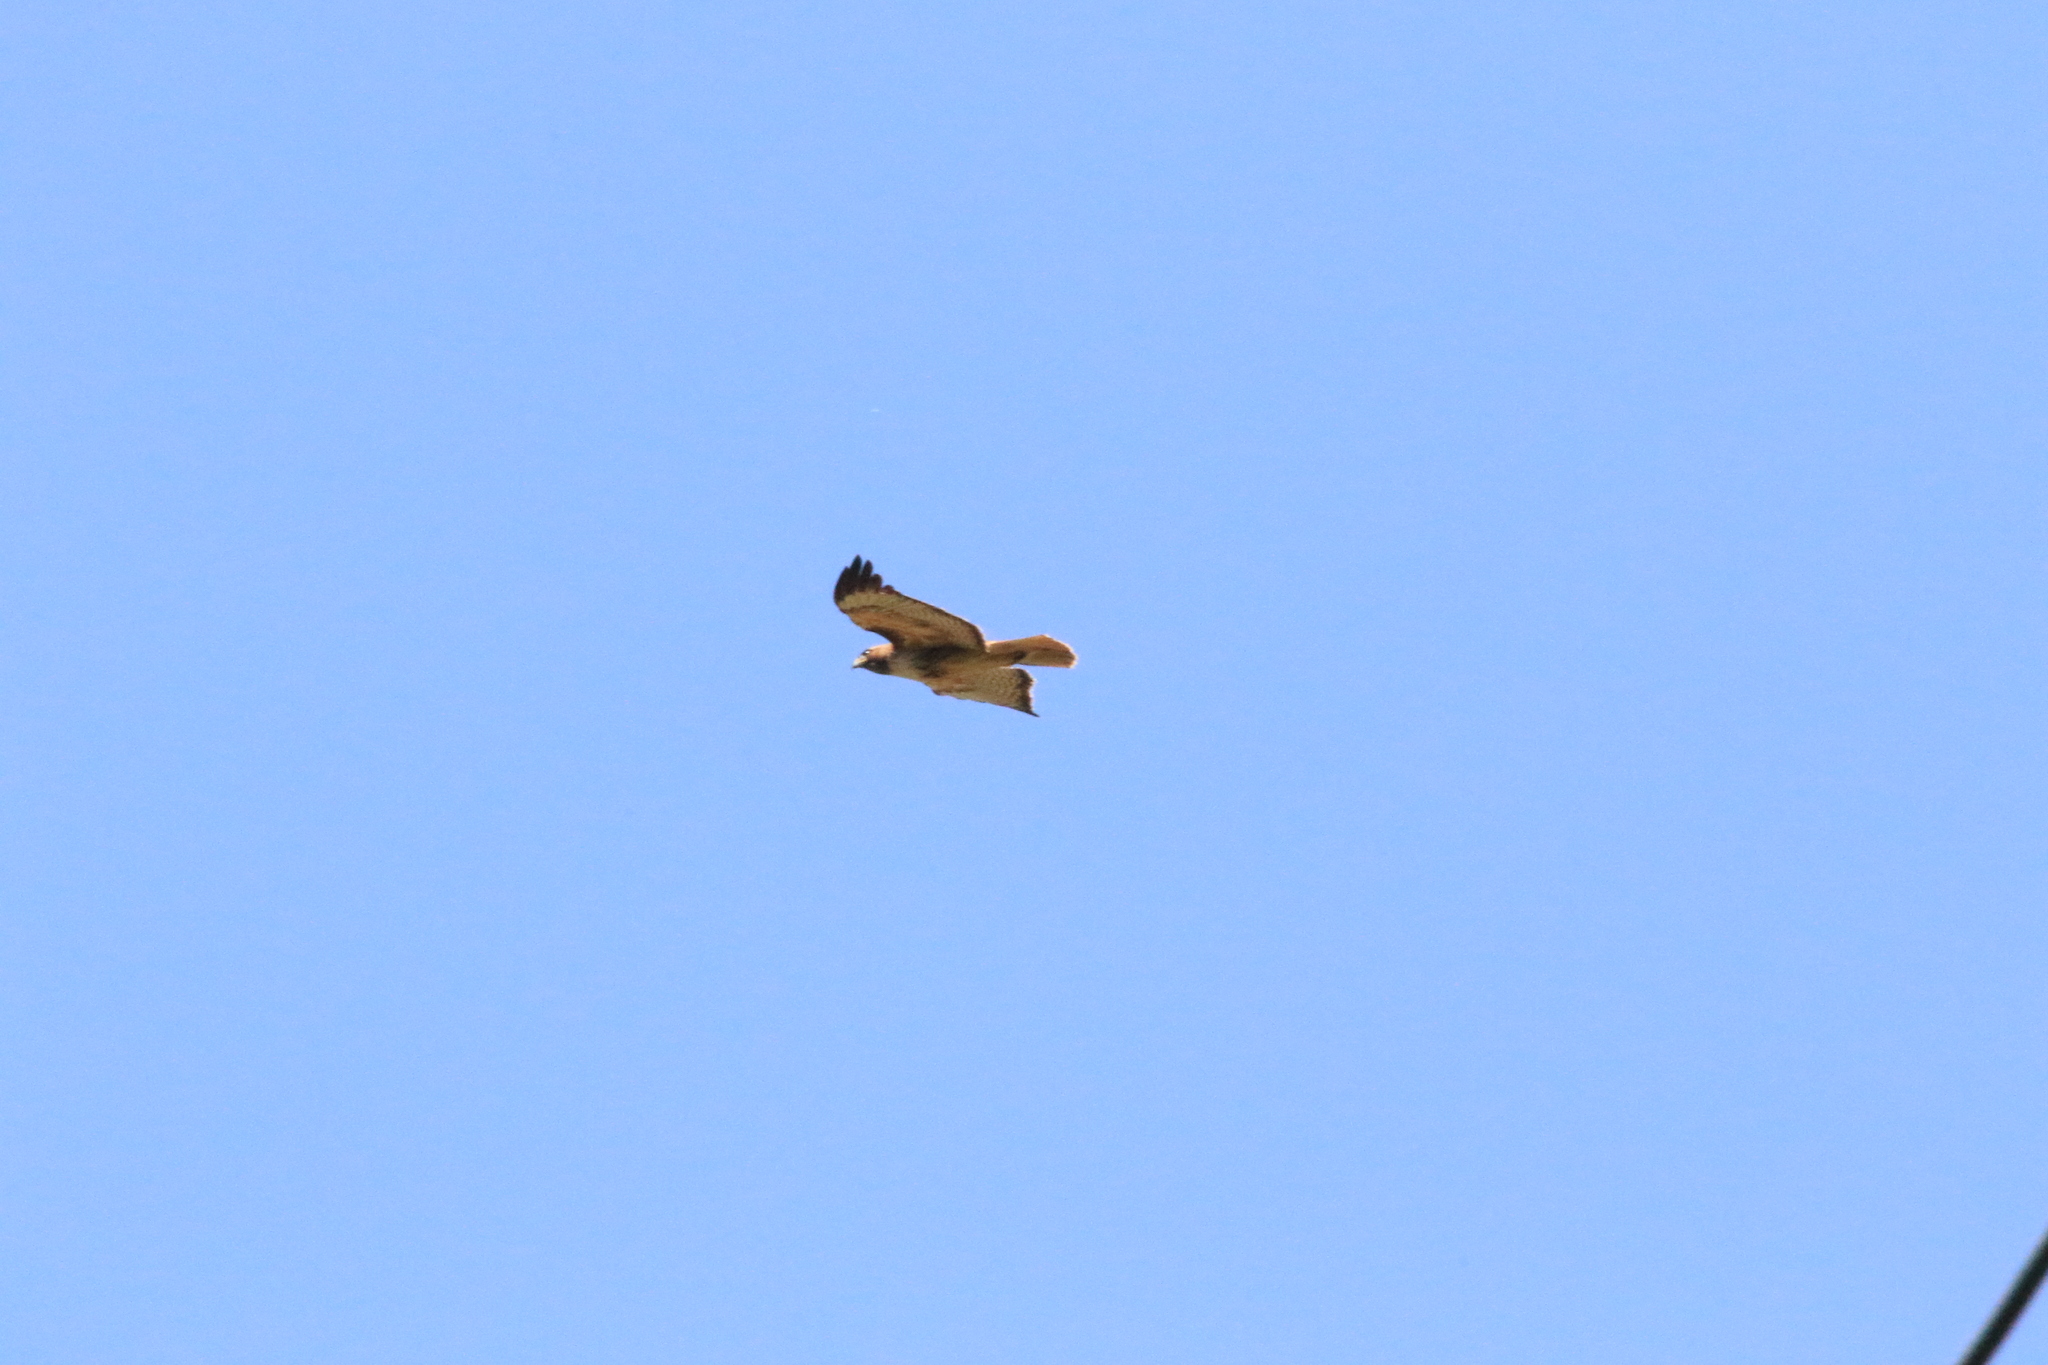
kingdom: Animalia
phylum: Chordata
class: Aves
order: Accipitriformes
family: Accipitridae
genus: Buteo
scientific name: Buteo jamaicensis
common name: Red-tailed hawk
